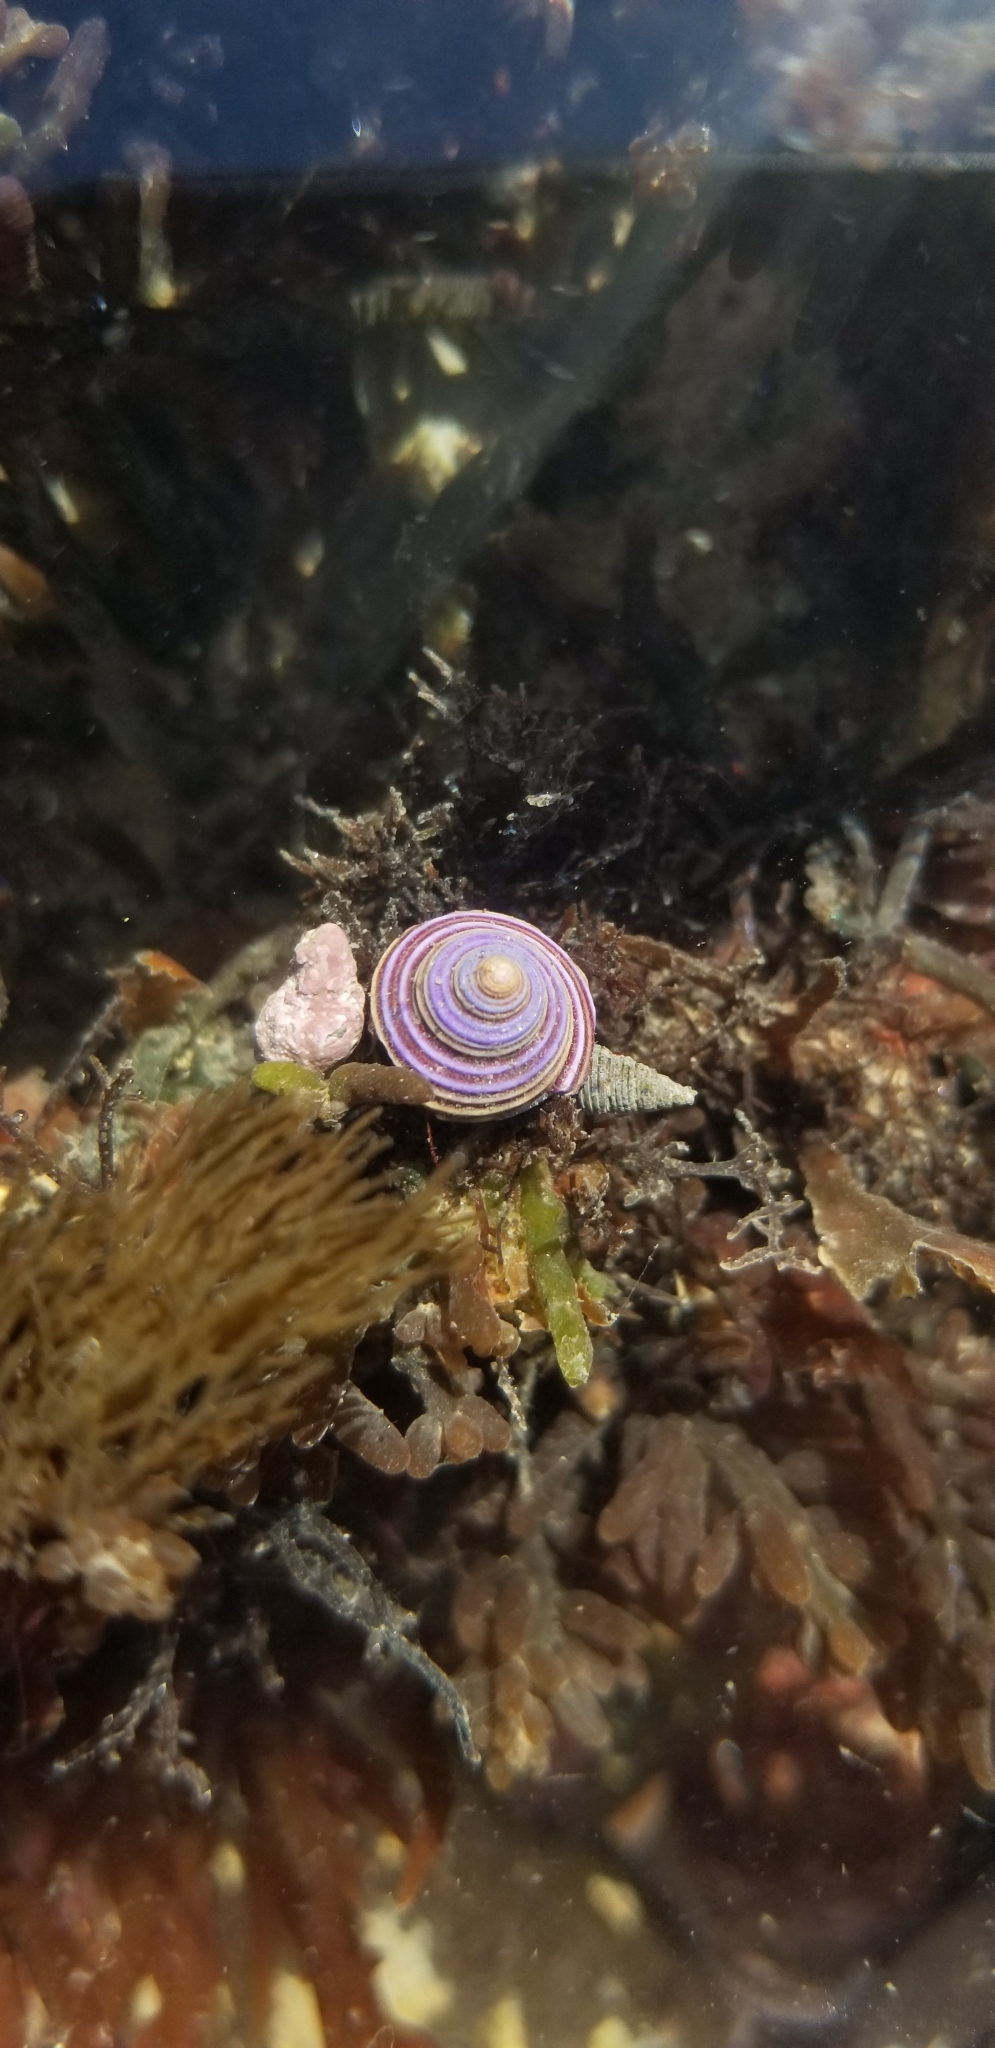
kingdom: Animalia
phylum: Mollusca
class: Gastropoda
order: Trochida
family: Calliostomatidae
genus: Calliostoma
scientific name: Calliostoma ligatum
